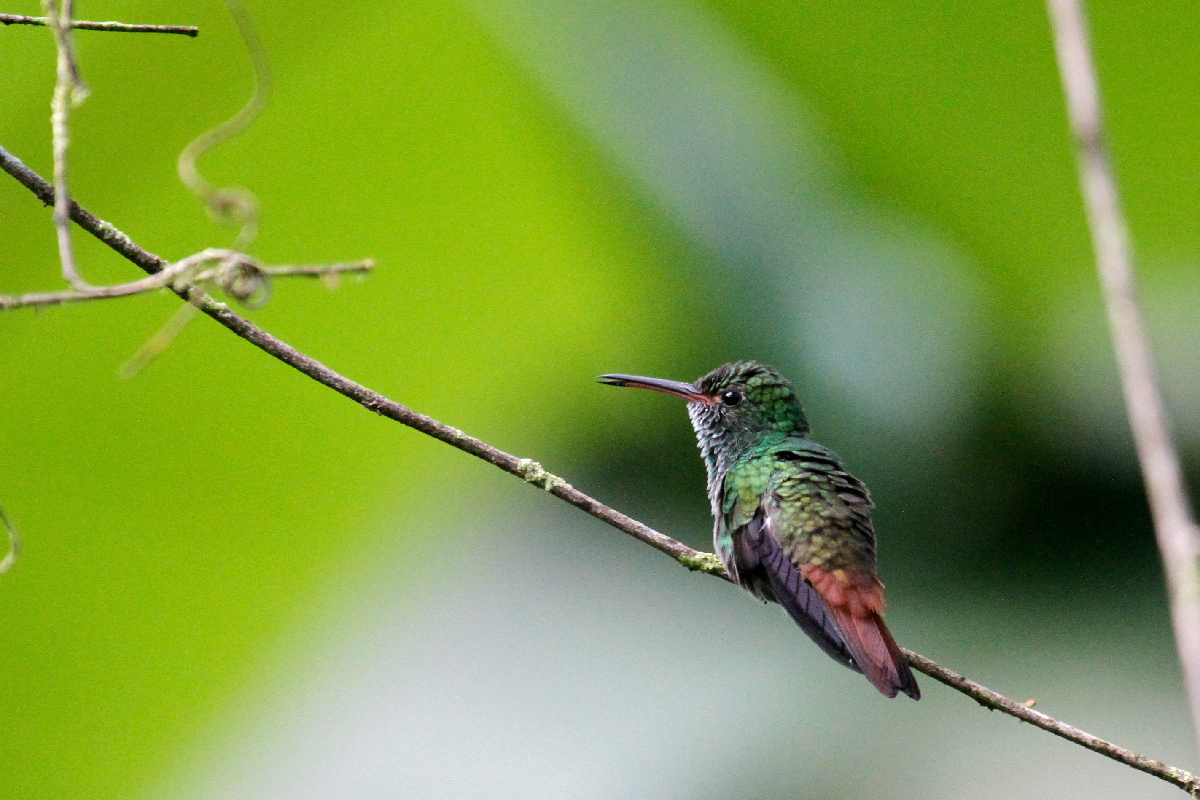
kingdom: Animalia
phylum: Chordata
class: Aves
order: Apodiformes
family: Trochilidae
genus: Amazilia
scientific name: Amazilia tzacatl
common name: Rufous-tailed hummingbird
